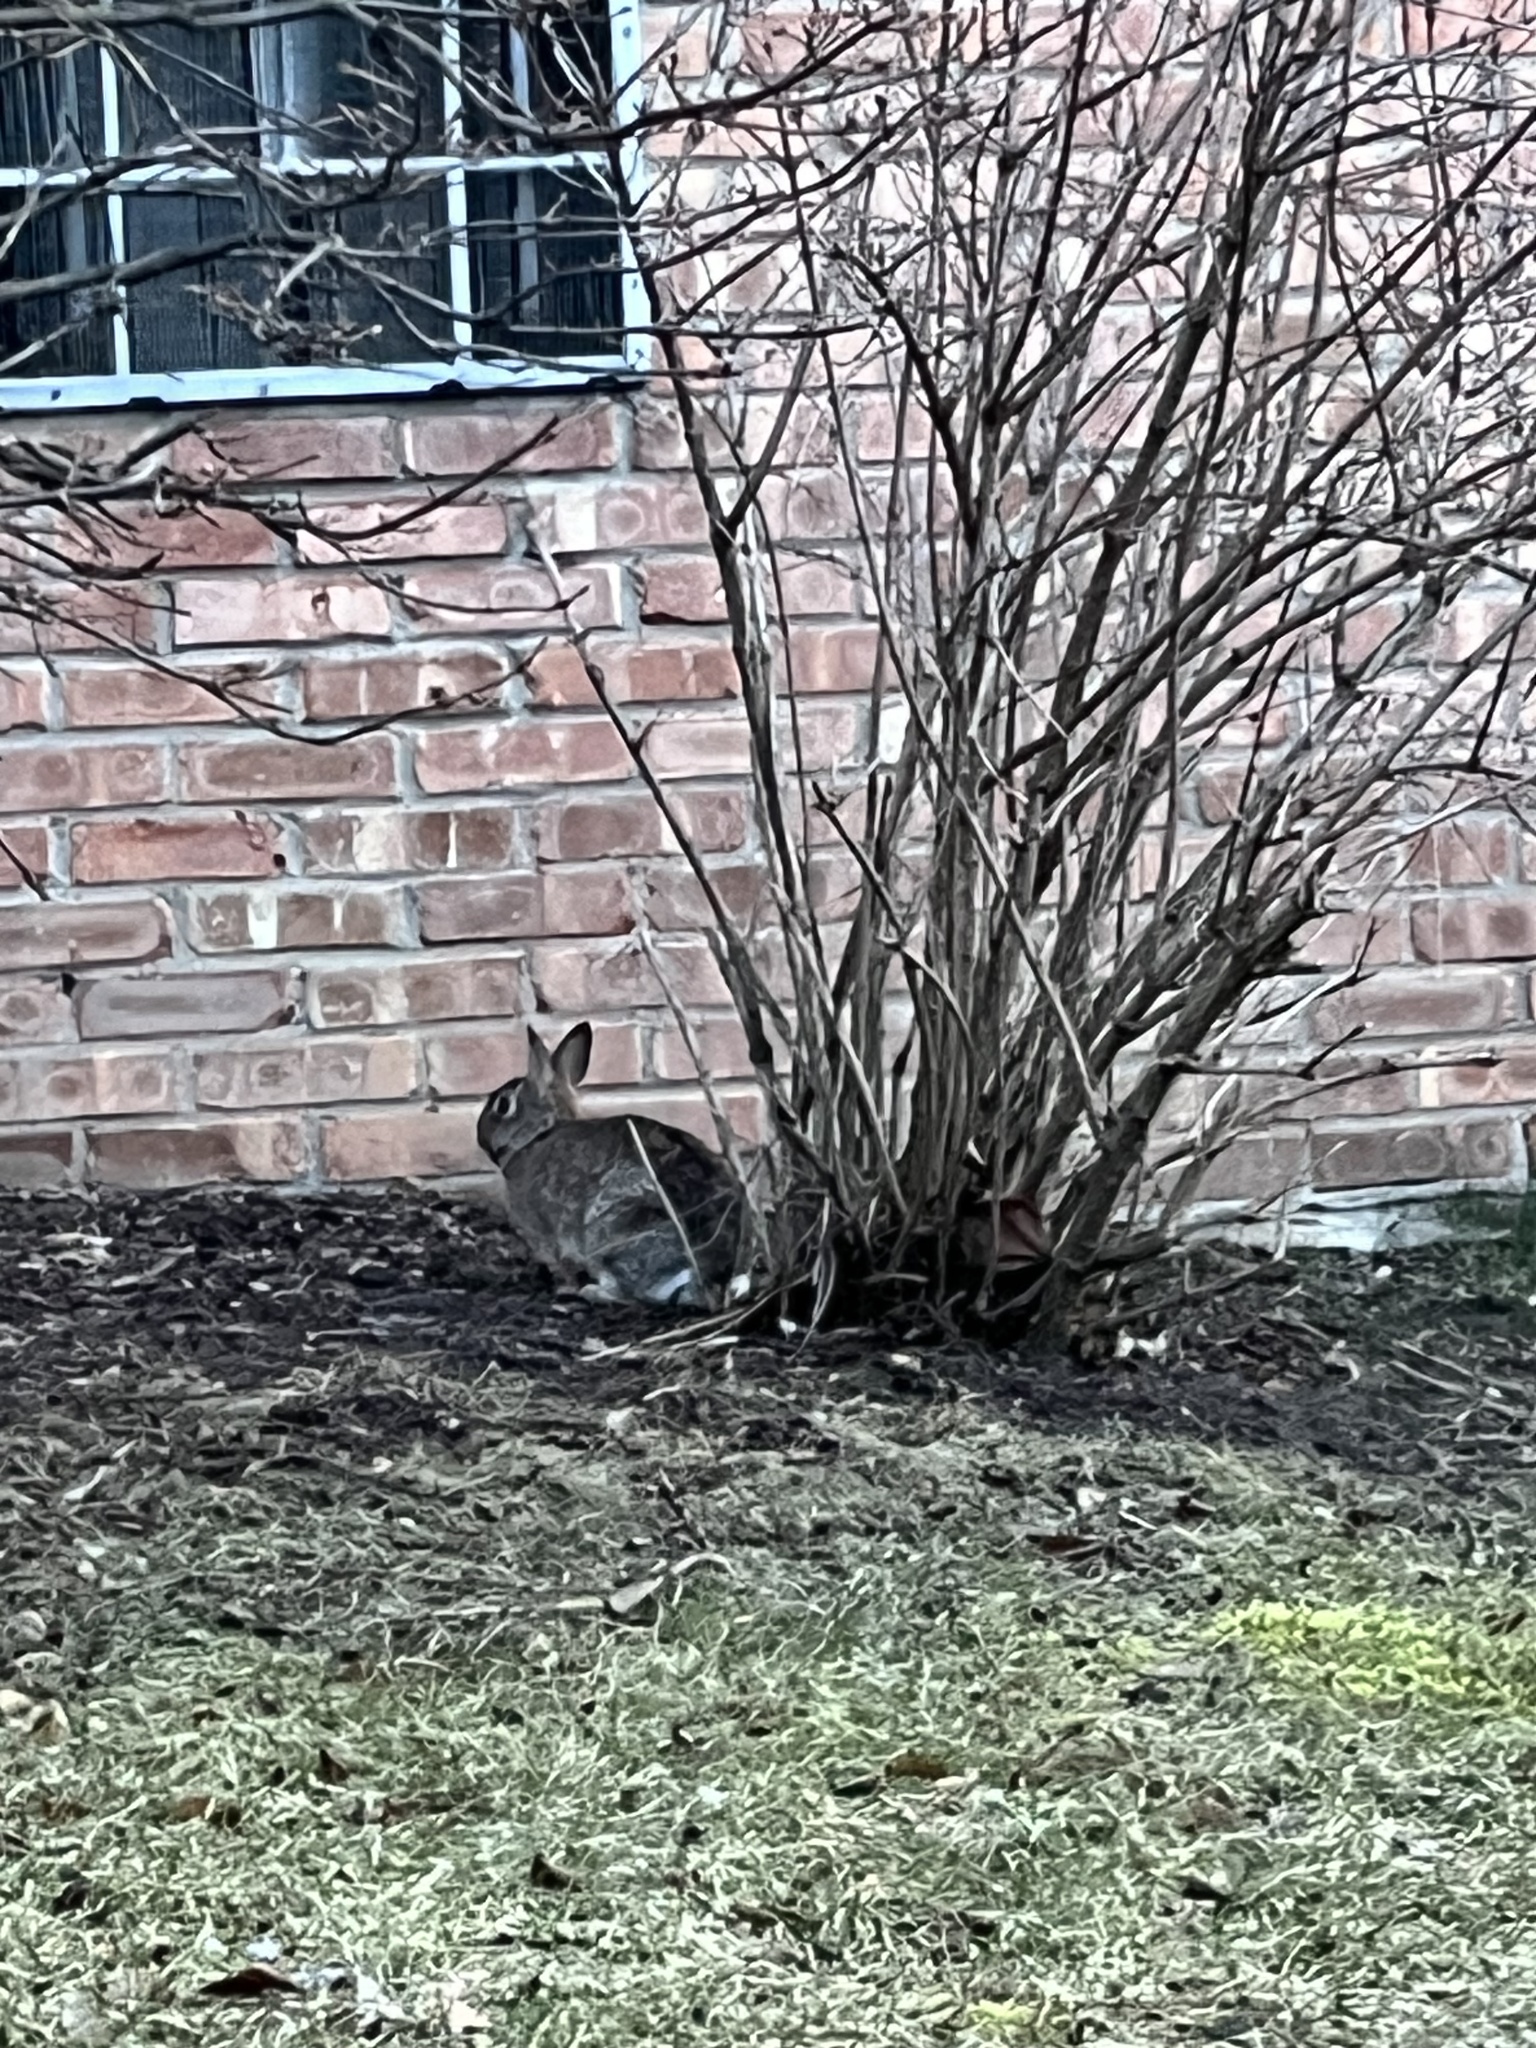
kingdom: Animalia
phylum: Chordata
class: Mammalia
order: Lagomorpha
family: Leporidae
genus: Sylvilagus
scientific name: Sylvilagus floridanus
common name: Eastern cottontail
